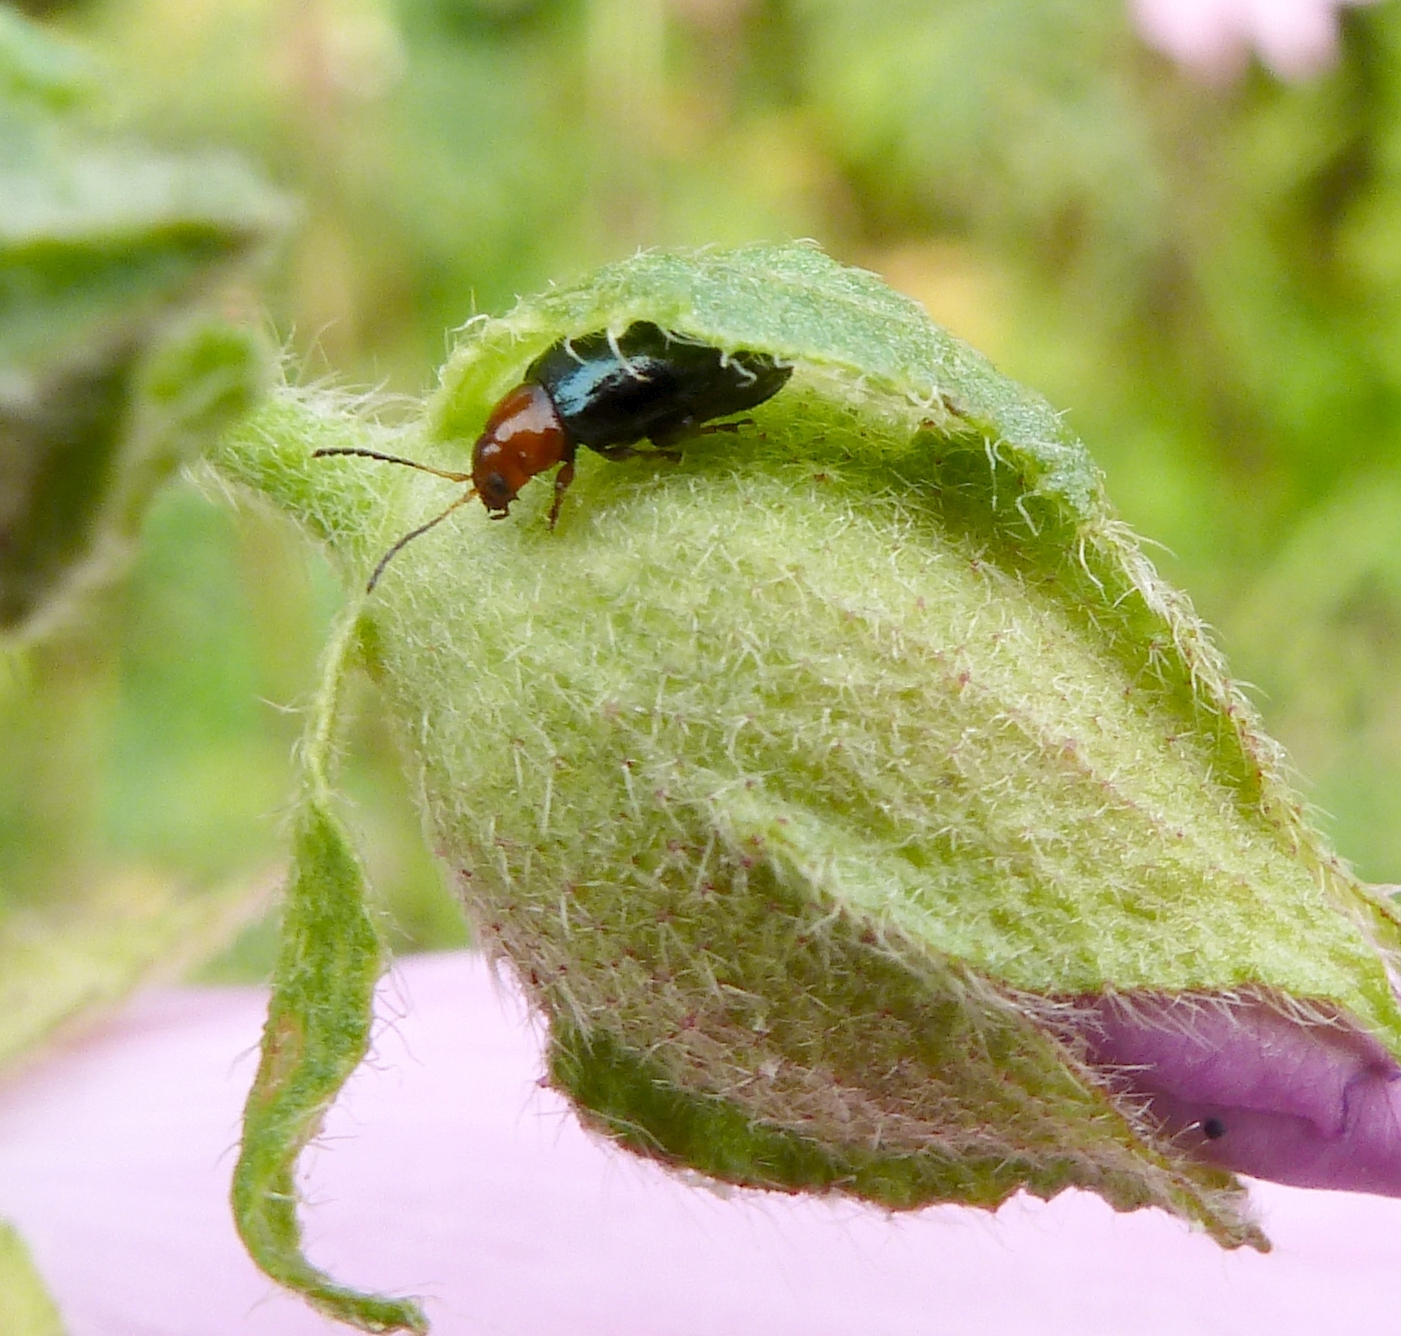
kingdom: Animalia
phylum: Arthropoda
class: Insecta
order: Coleoptera
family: Chrysomelidae
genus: Podagrica
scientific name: Podagrica fuscicornis
